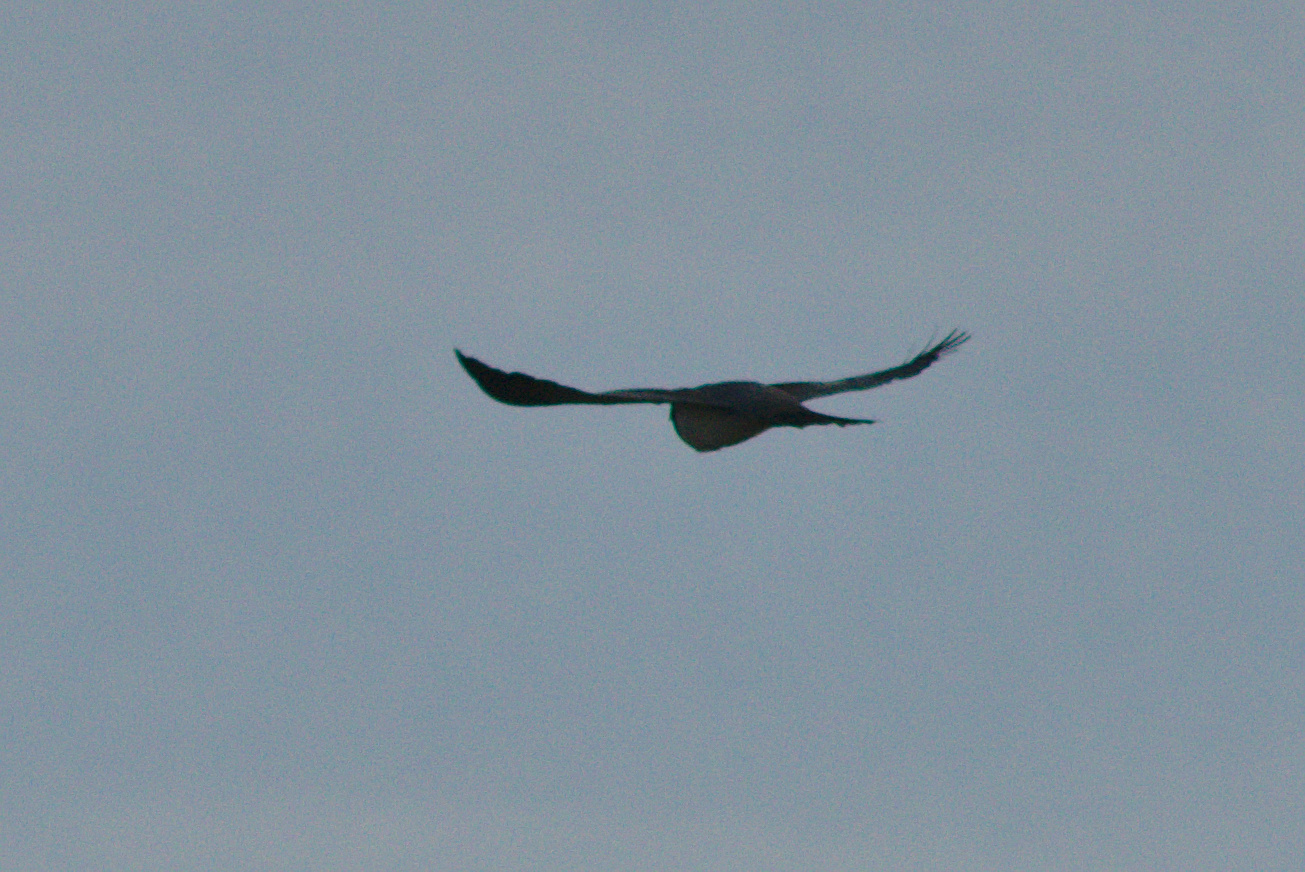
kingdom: Animalia
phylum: Chordata
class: Aves
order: Columbiformes
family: Columbidae
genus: Hemiphaga
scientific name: Hemiphaga novaeseelandiae
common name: New zealand pigeon
